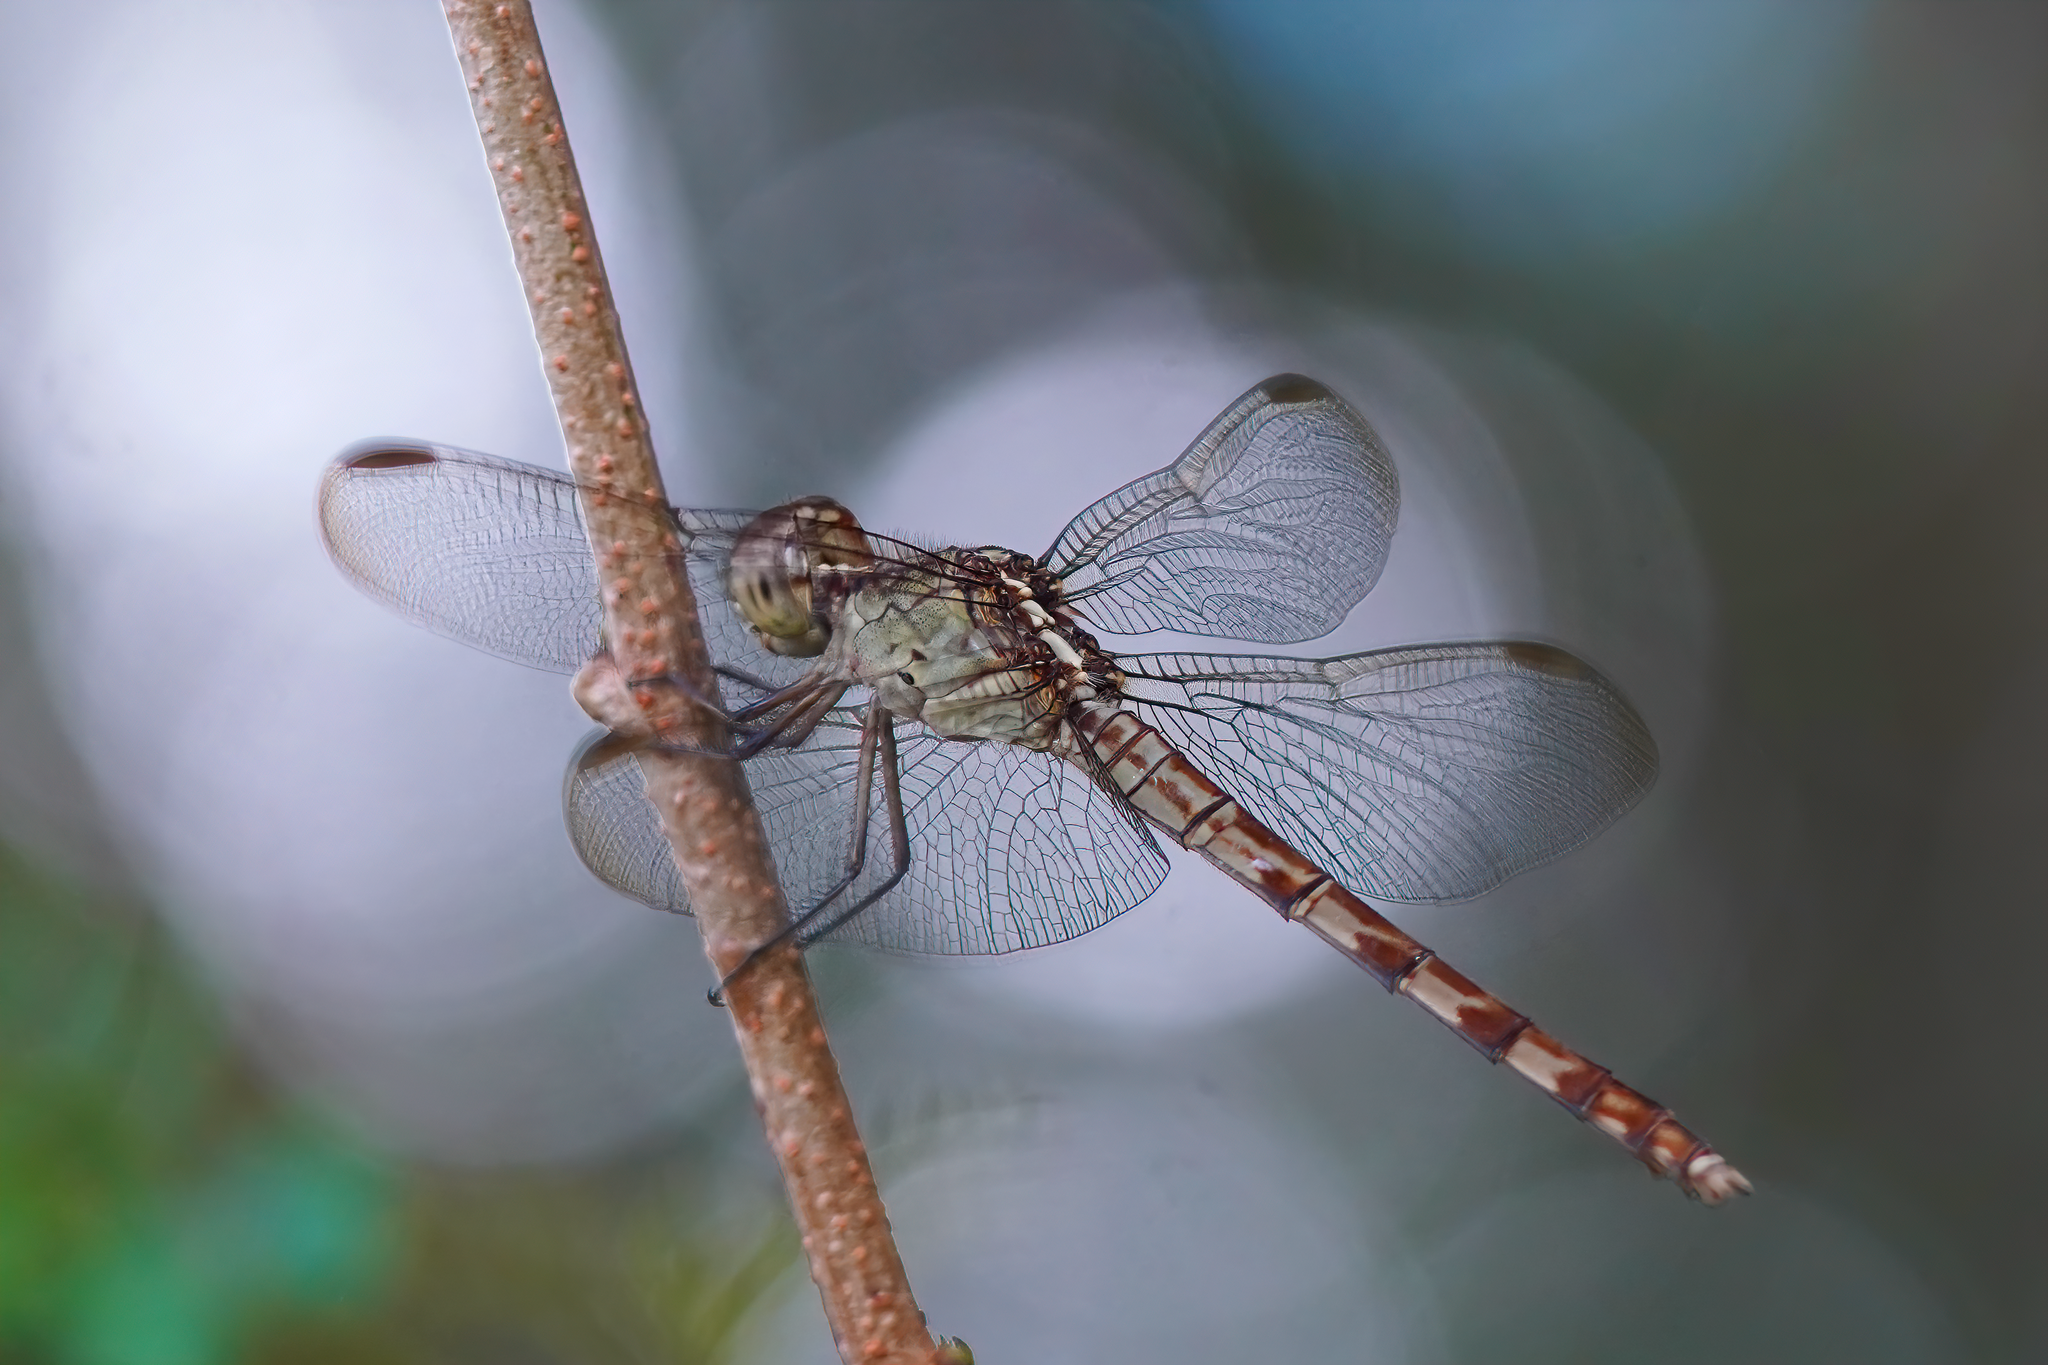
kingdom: Animalia
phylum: Arthropoda
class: Insecta
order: Odonata
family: Libellulidae
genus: Erythrodiplax
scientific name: Erythrodiplax umbrata
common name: Band-winged dragonlet
